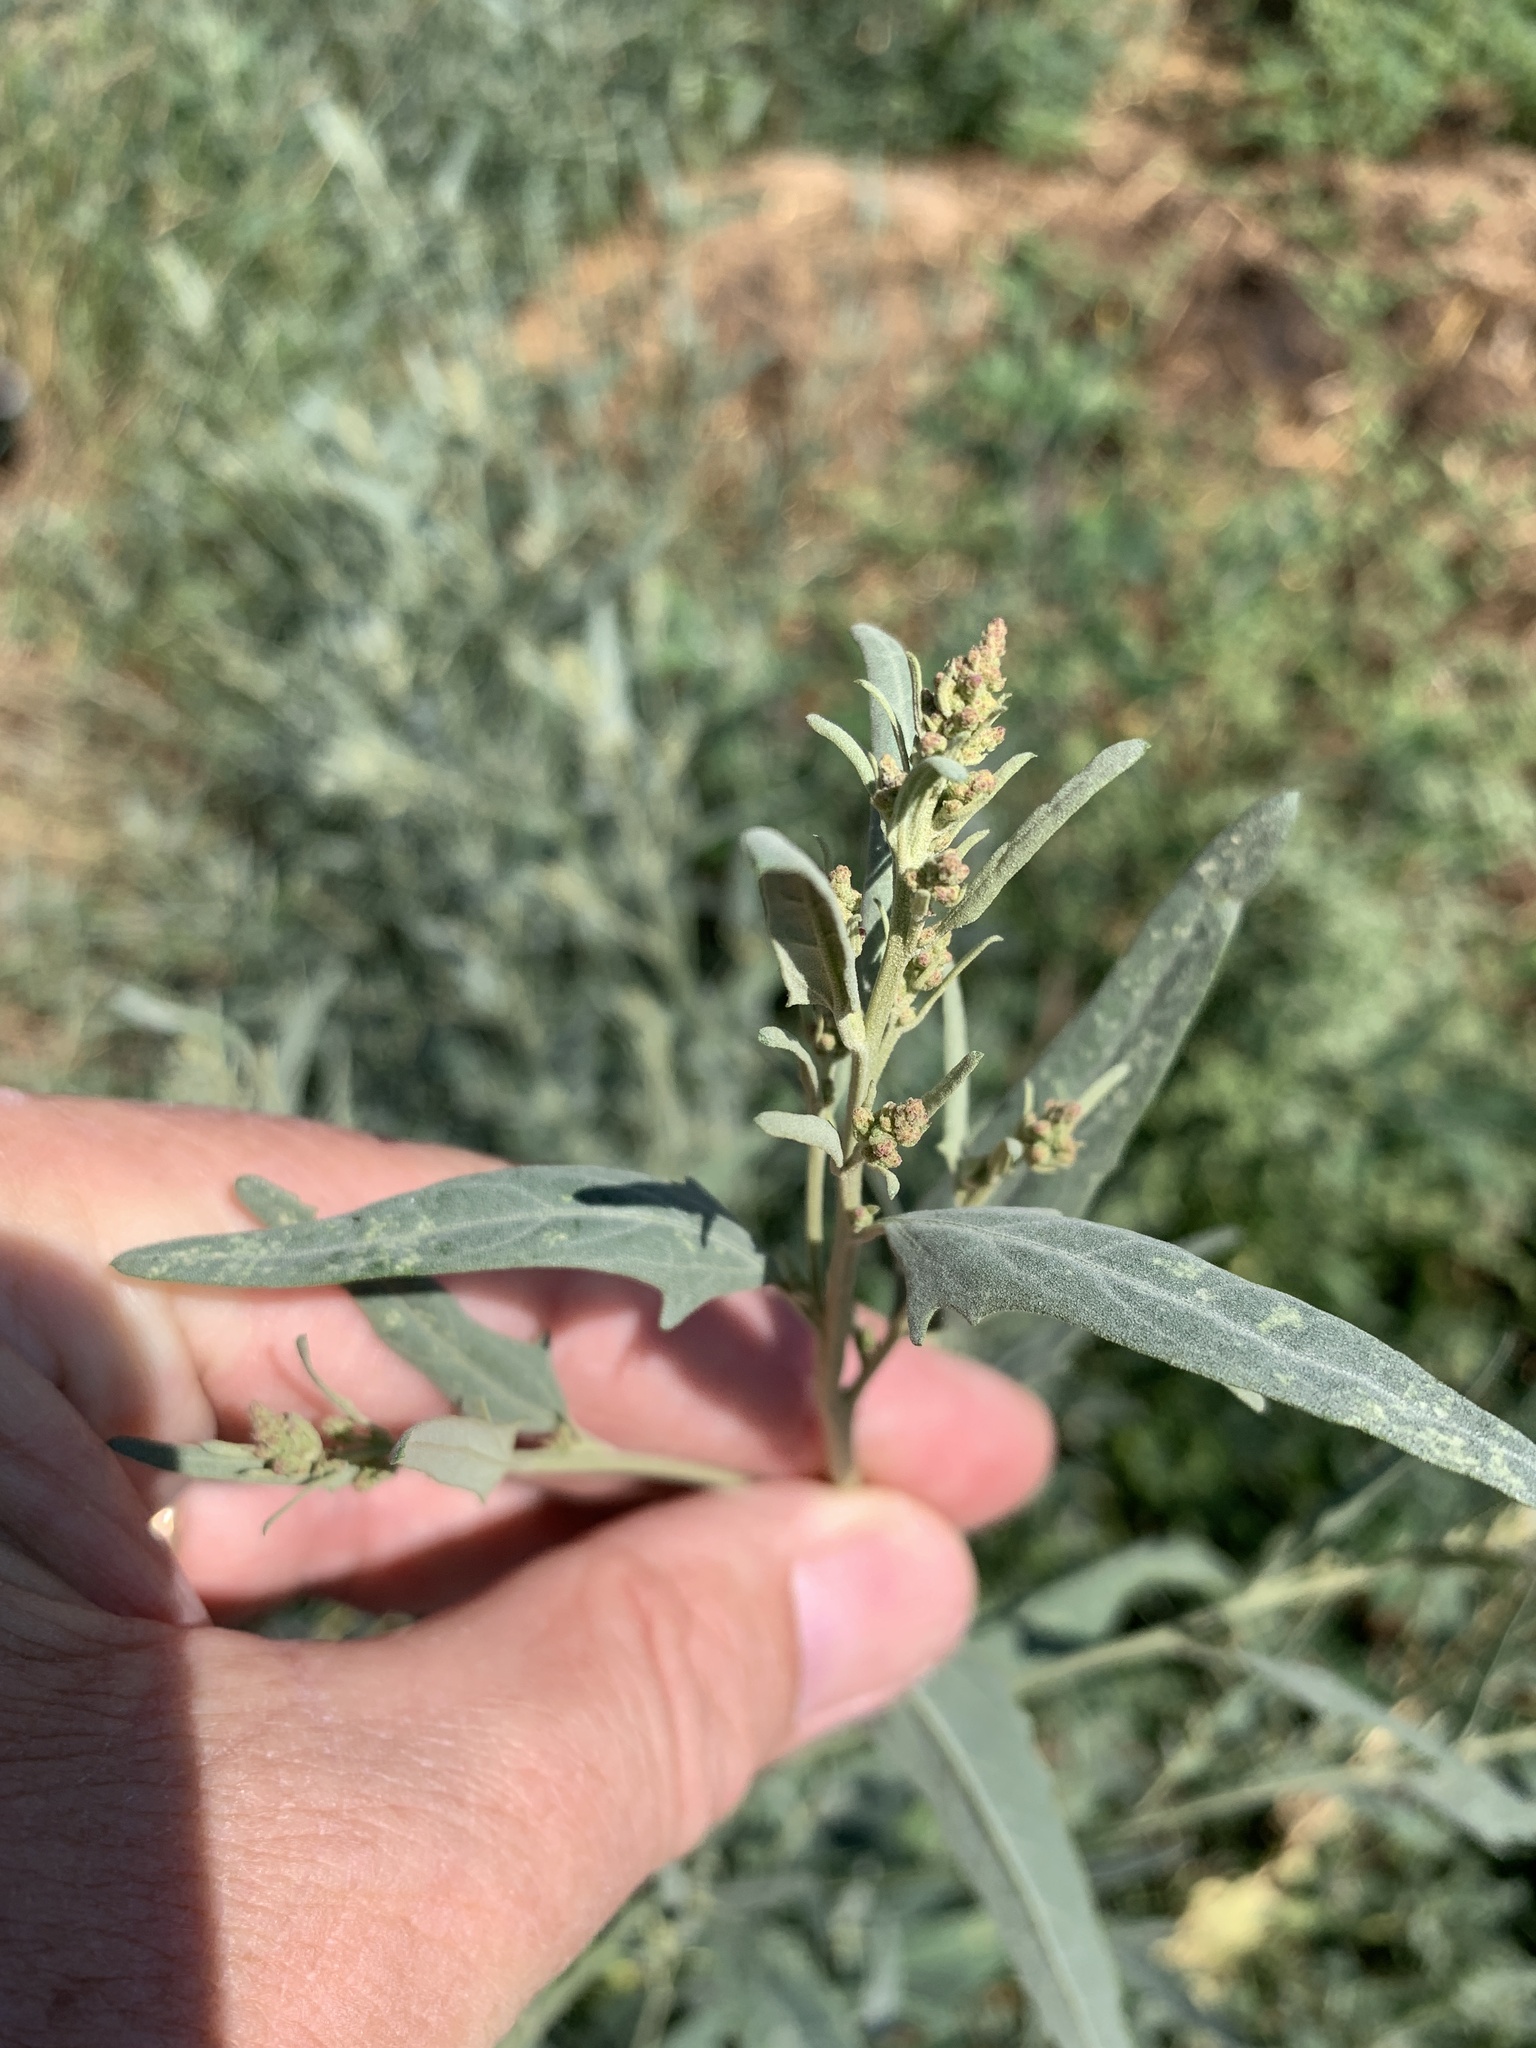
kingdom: Plantae
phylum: Tracheophyta
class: Magnoliopsida
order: Caryophyllales
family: Amaranthaceae
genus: Atriplex
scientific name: Atriplex oblongifolia
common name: Oblongleaf orache
